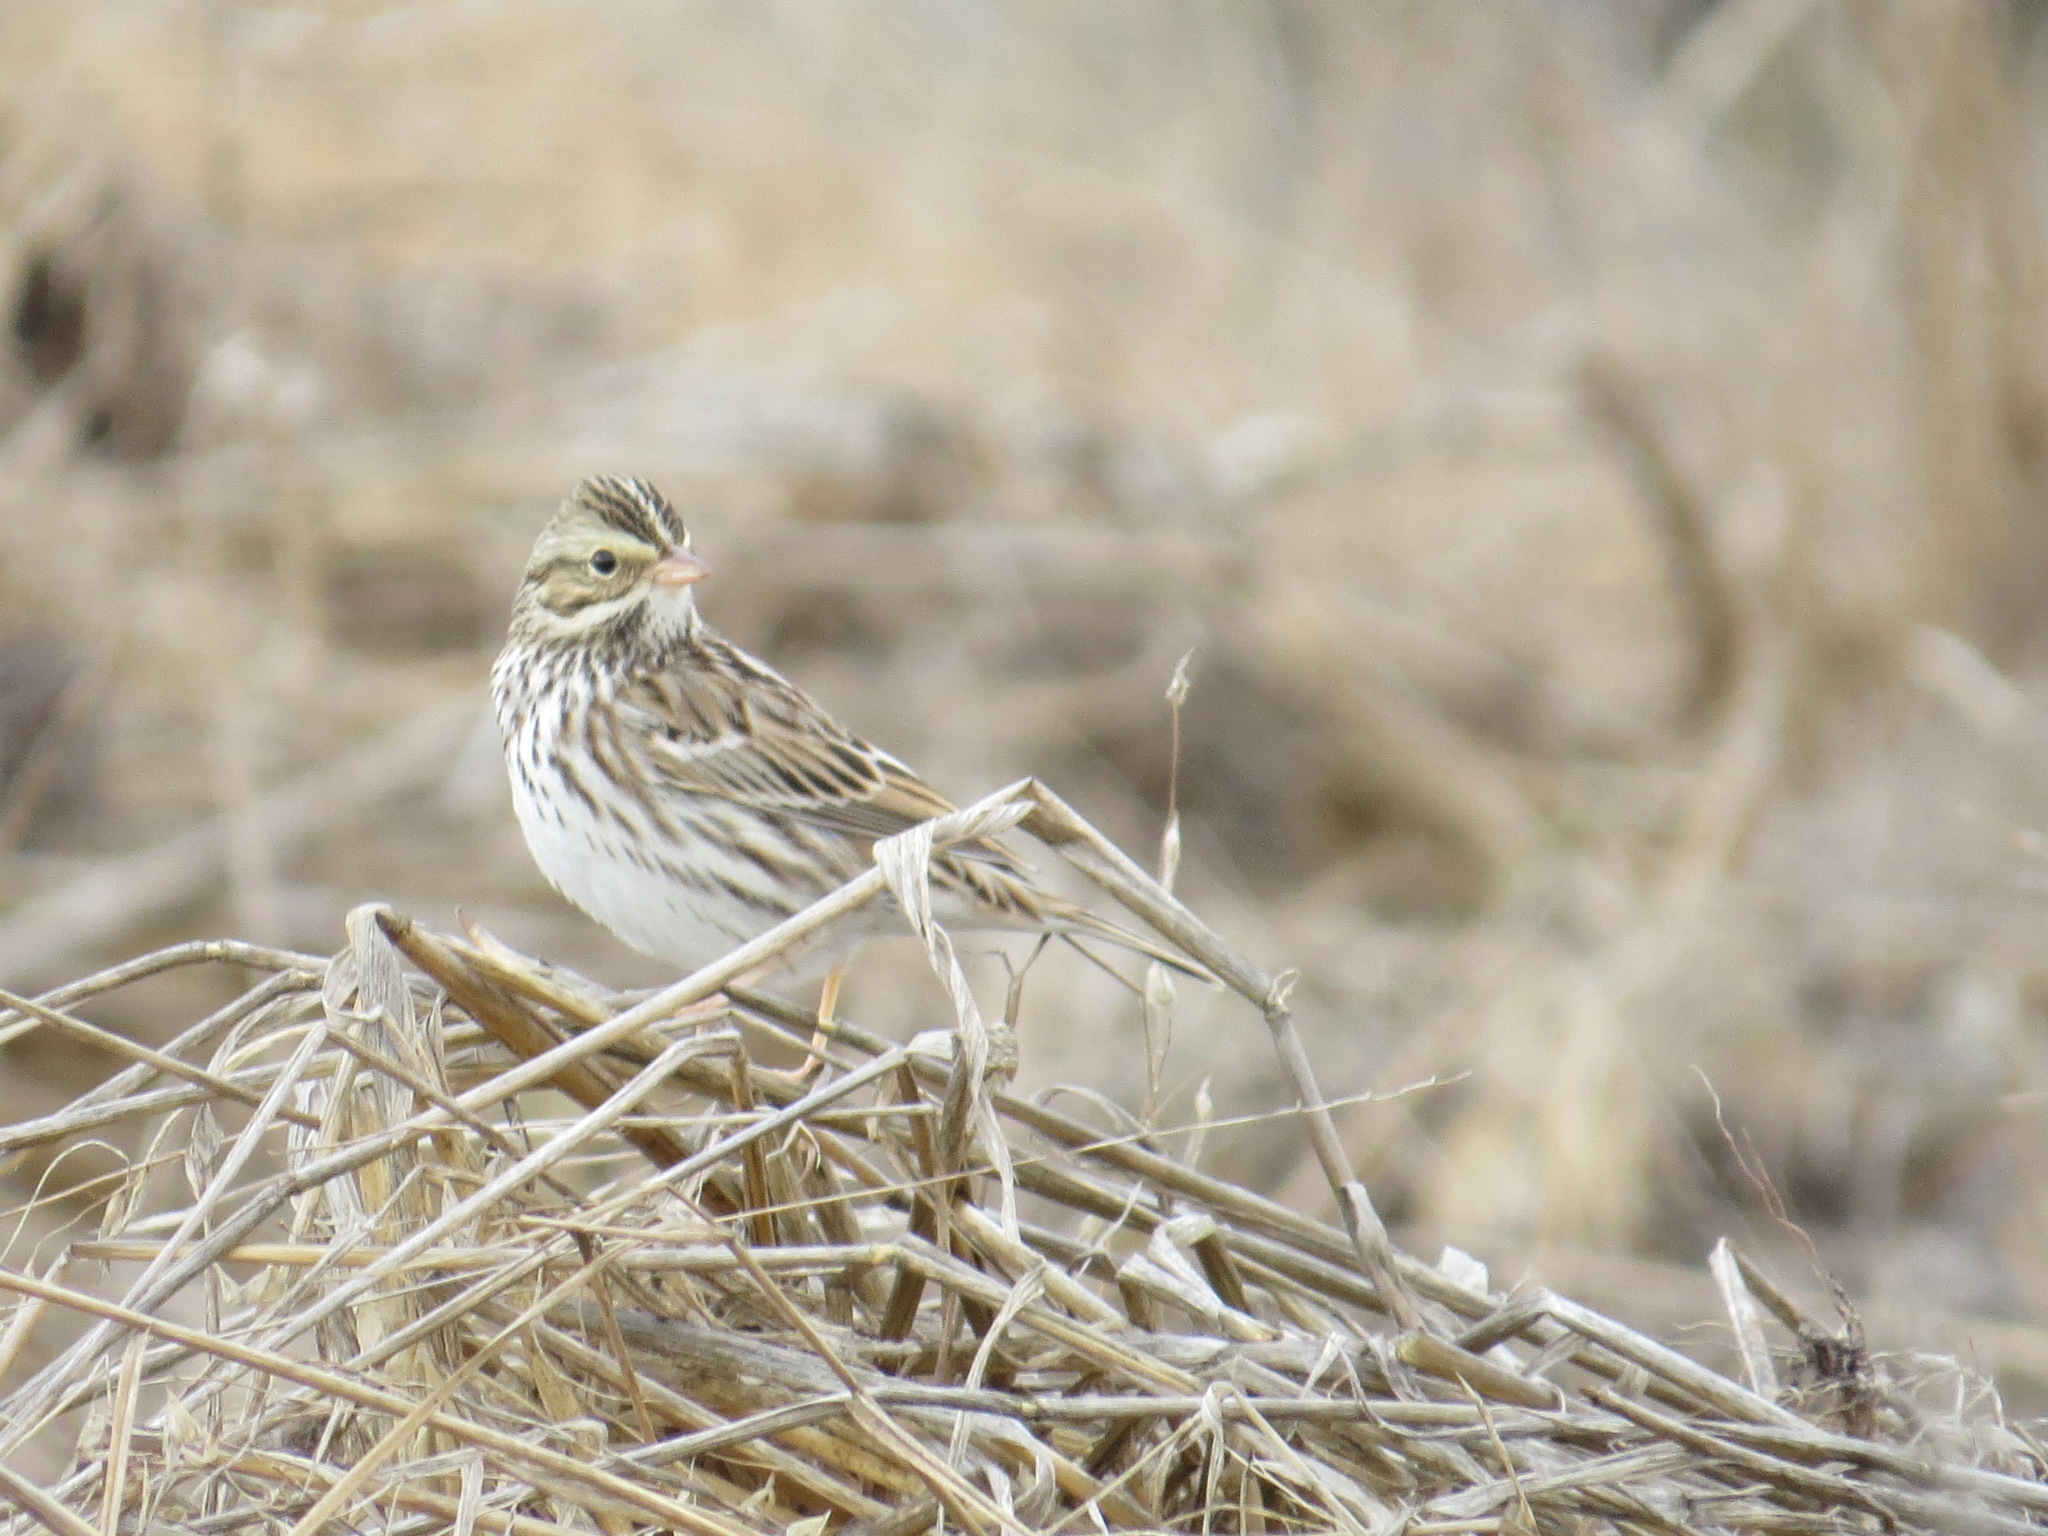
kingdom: Animalia
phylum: Chordata
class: Aves
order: Passeriformes
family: Passerellidae
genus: Passerculus
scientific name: Passerculus sandwichensis
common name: Savannah sparrow
